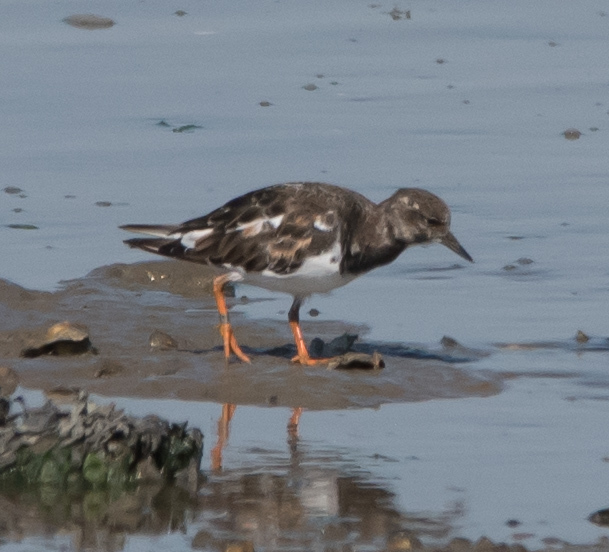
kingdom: Animalia
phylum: Chordata
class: Aves
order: Charadriiformes
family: Scolopacidae
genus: Arenaria
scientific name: Arenaria interpres
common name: Ruddy turnstone
